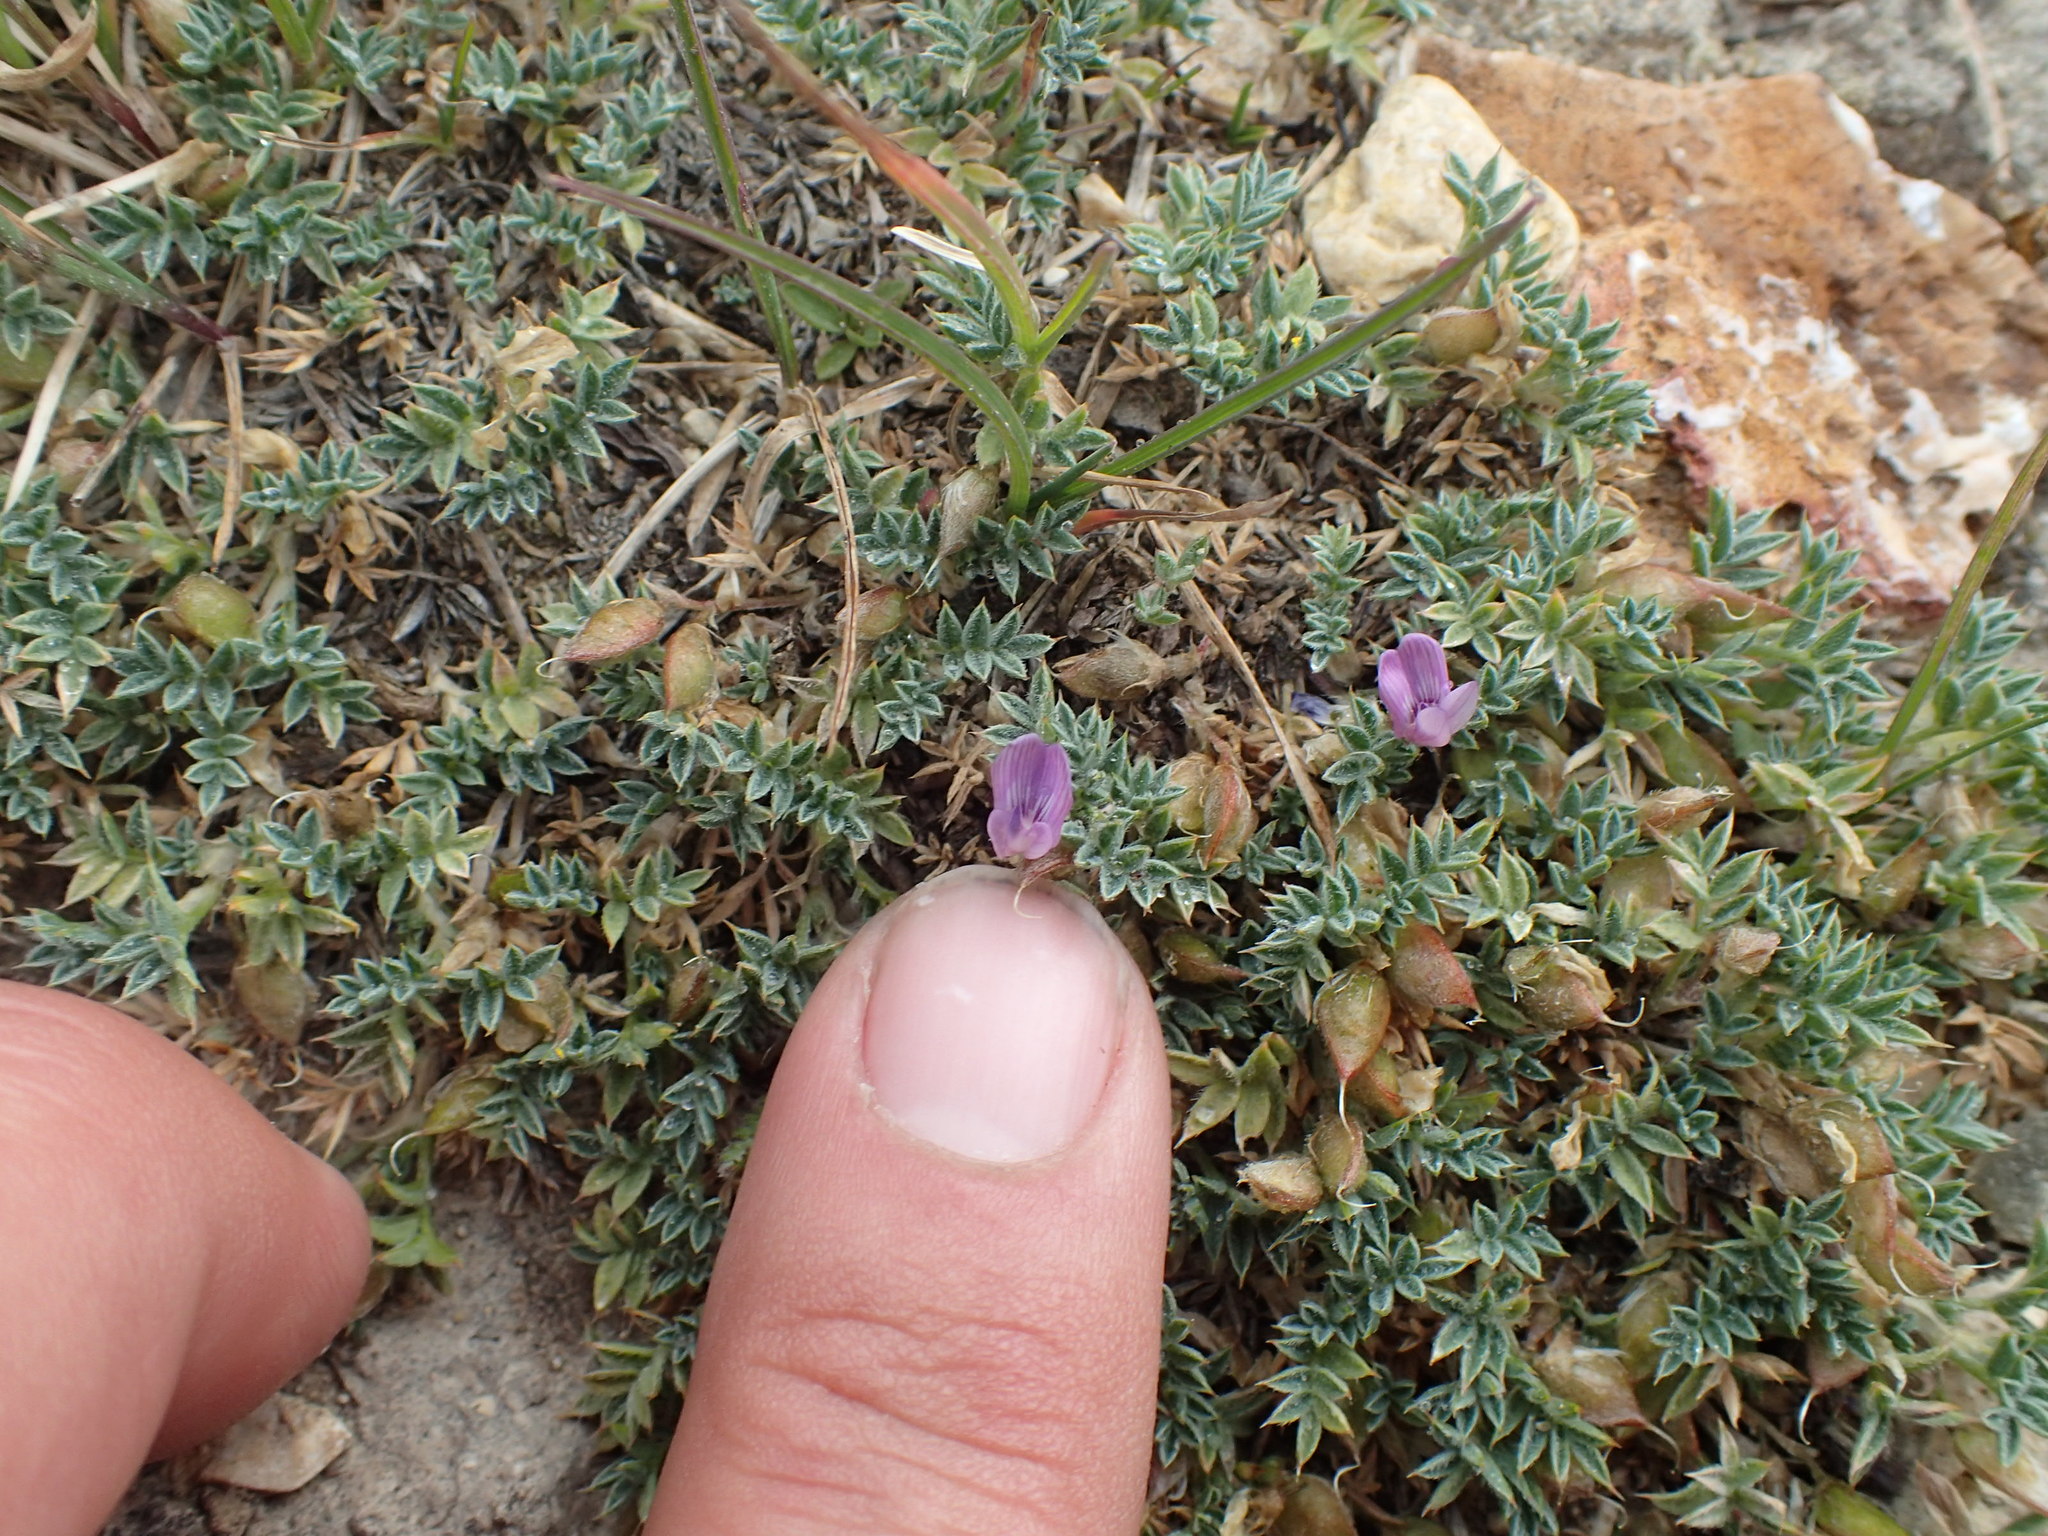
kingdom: Plantae
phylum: Tracheophyta
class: Magnoliopsida
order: Fabales
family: Fabaceae
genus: Astragalus
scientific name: Astragalus kentrophyta
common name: Prickly milk-vetch
